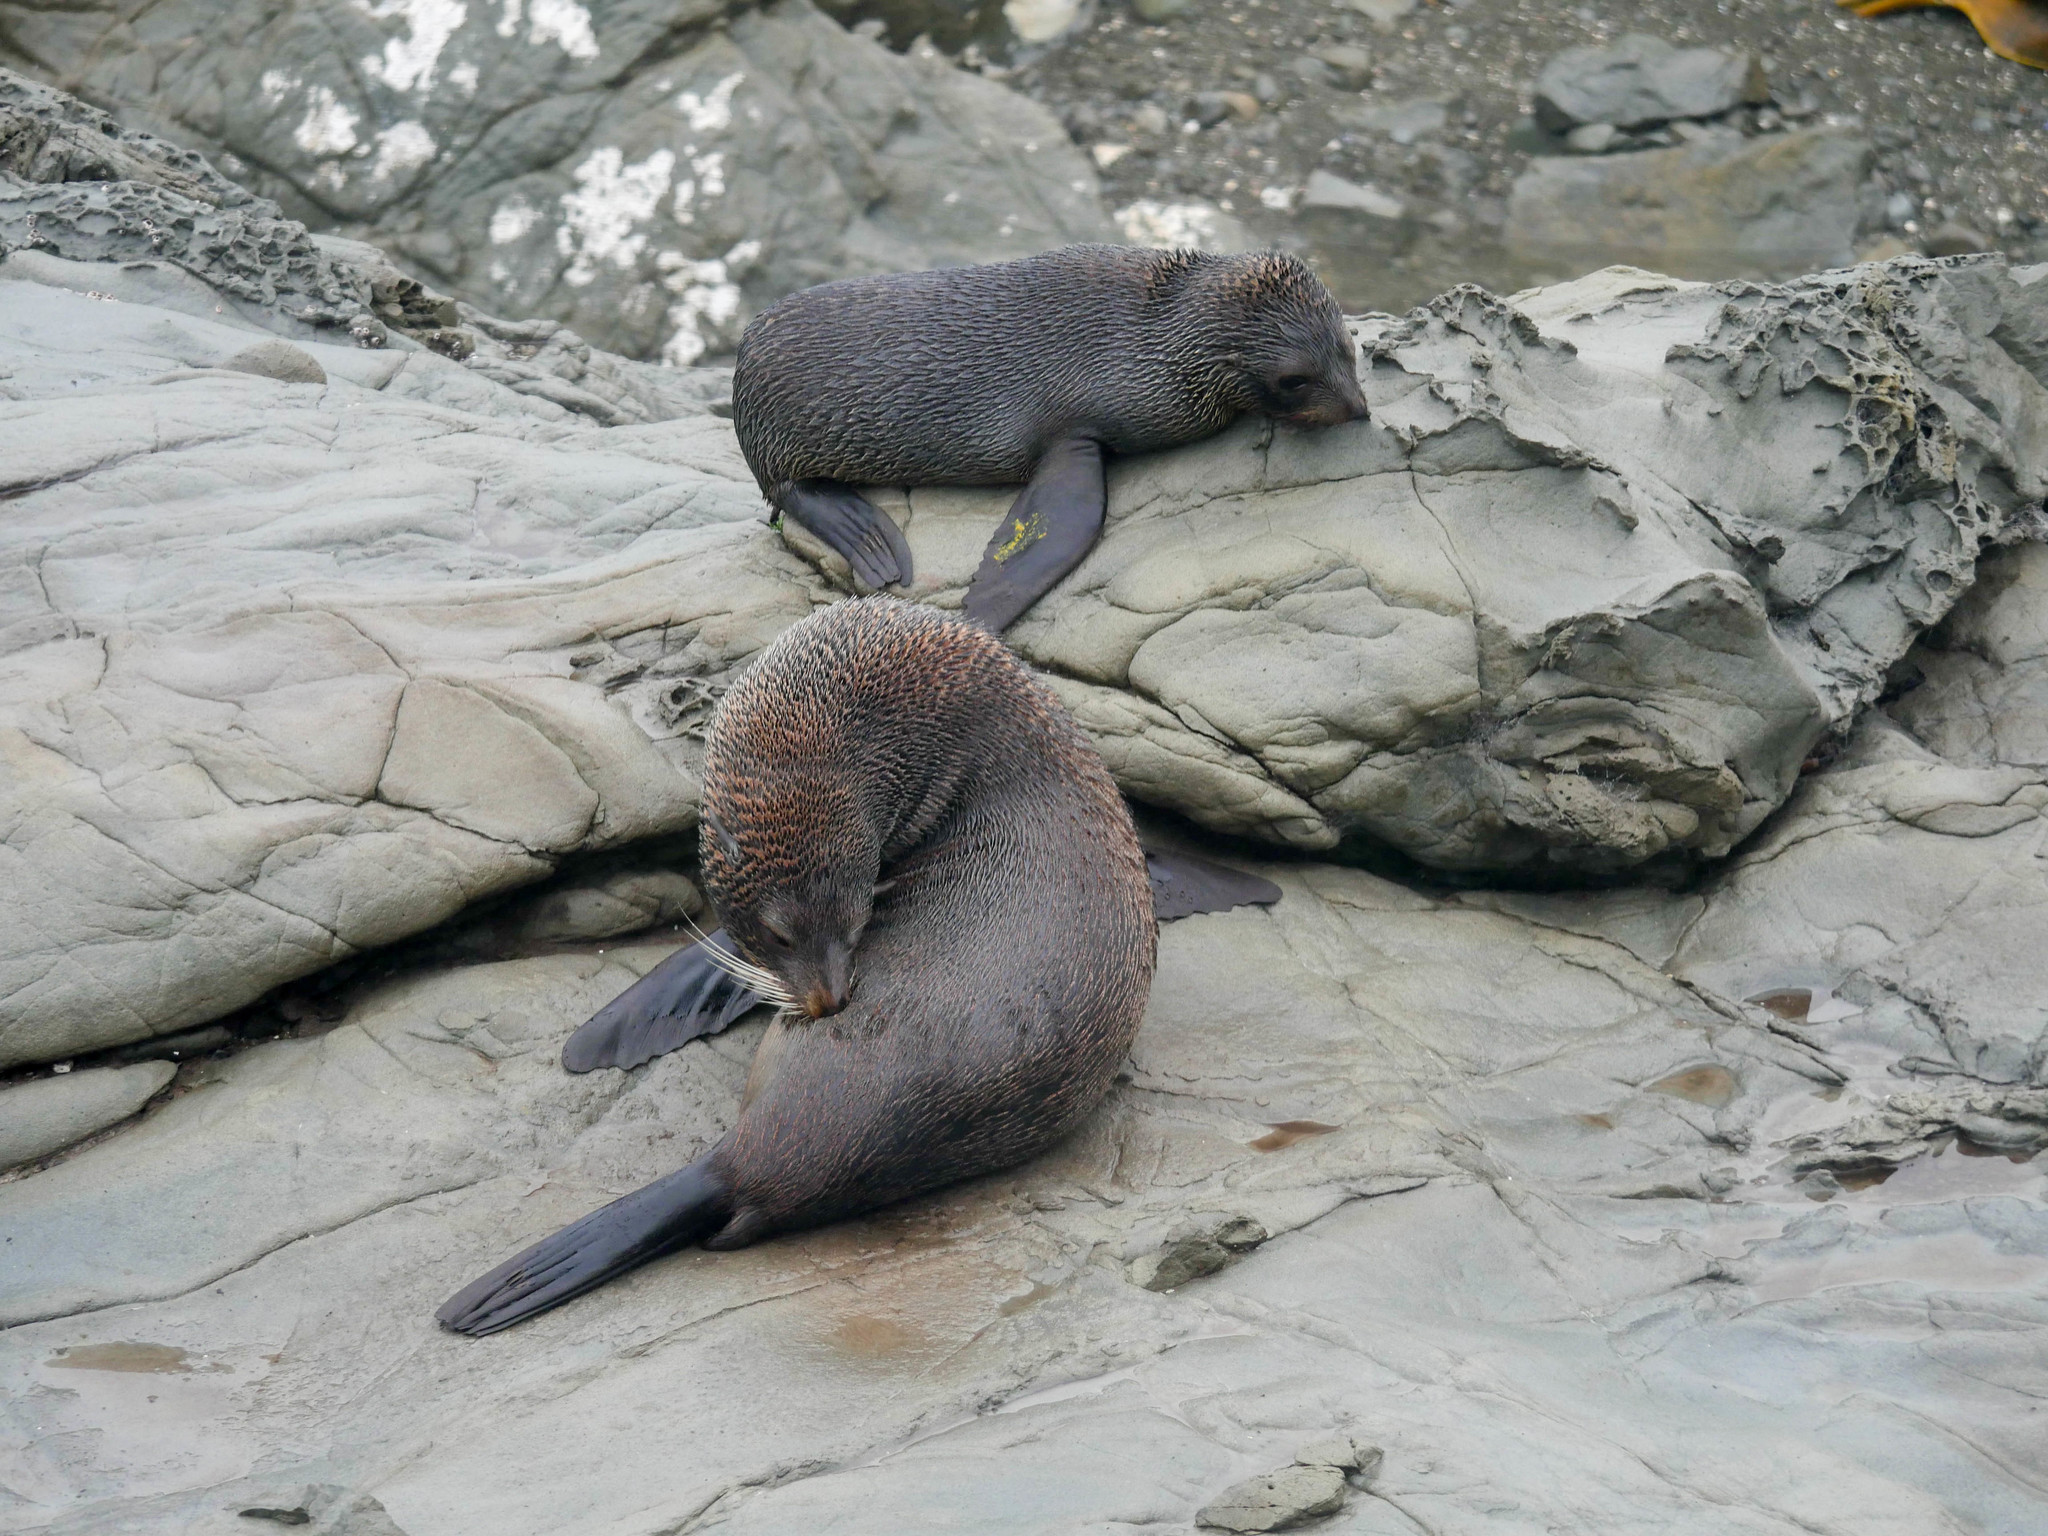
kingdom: Animalia
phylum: Chordata
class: Mammalia
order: Carnivora
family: Otariidae
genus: Arctocephalus
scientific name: Arctocephalus forsteri
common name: New zealand fur seal
